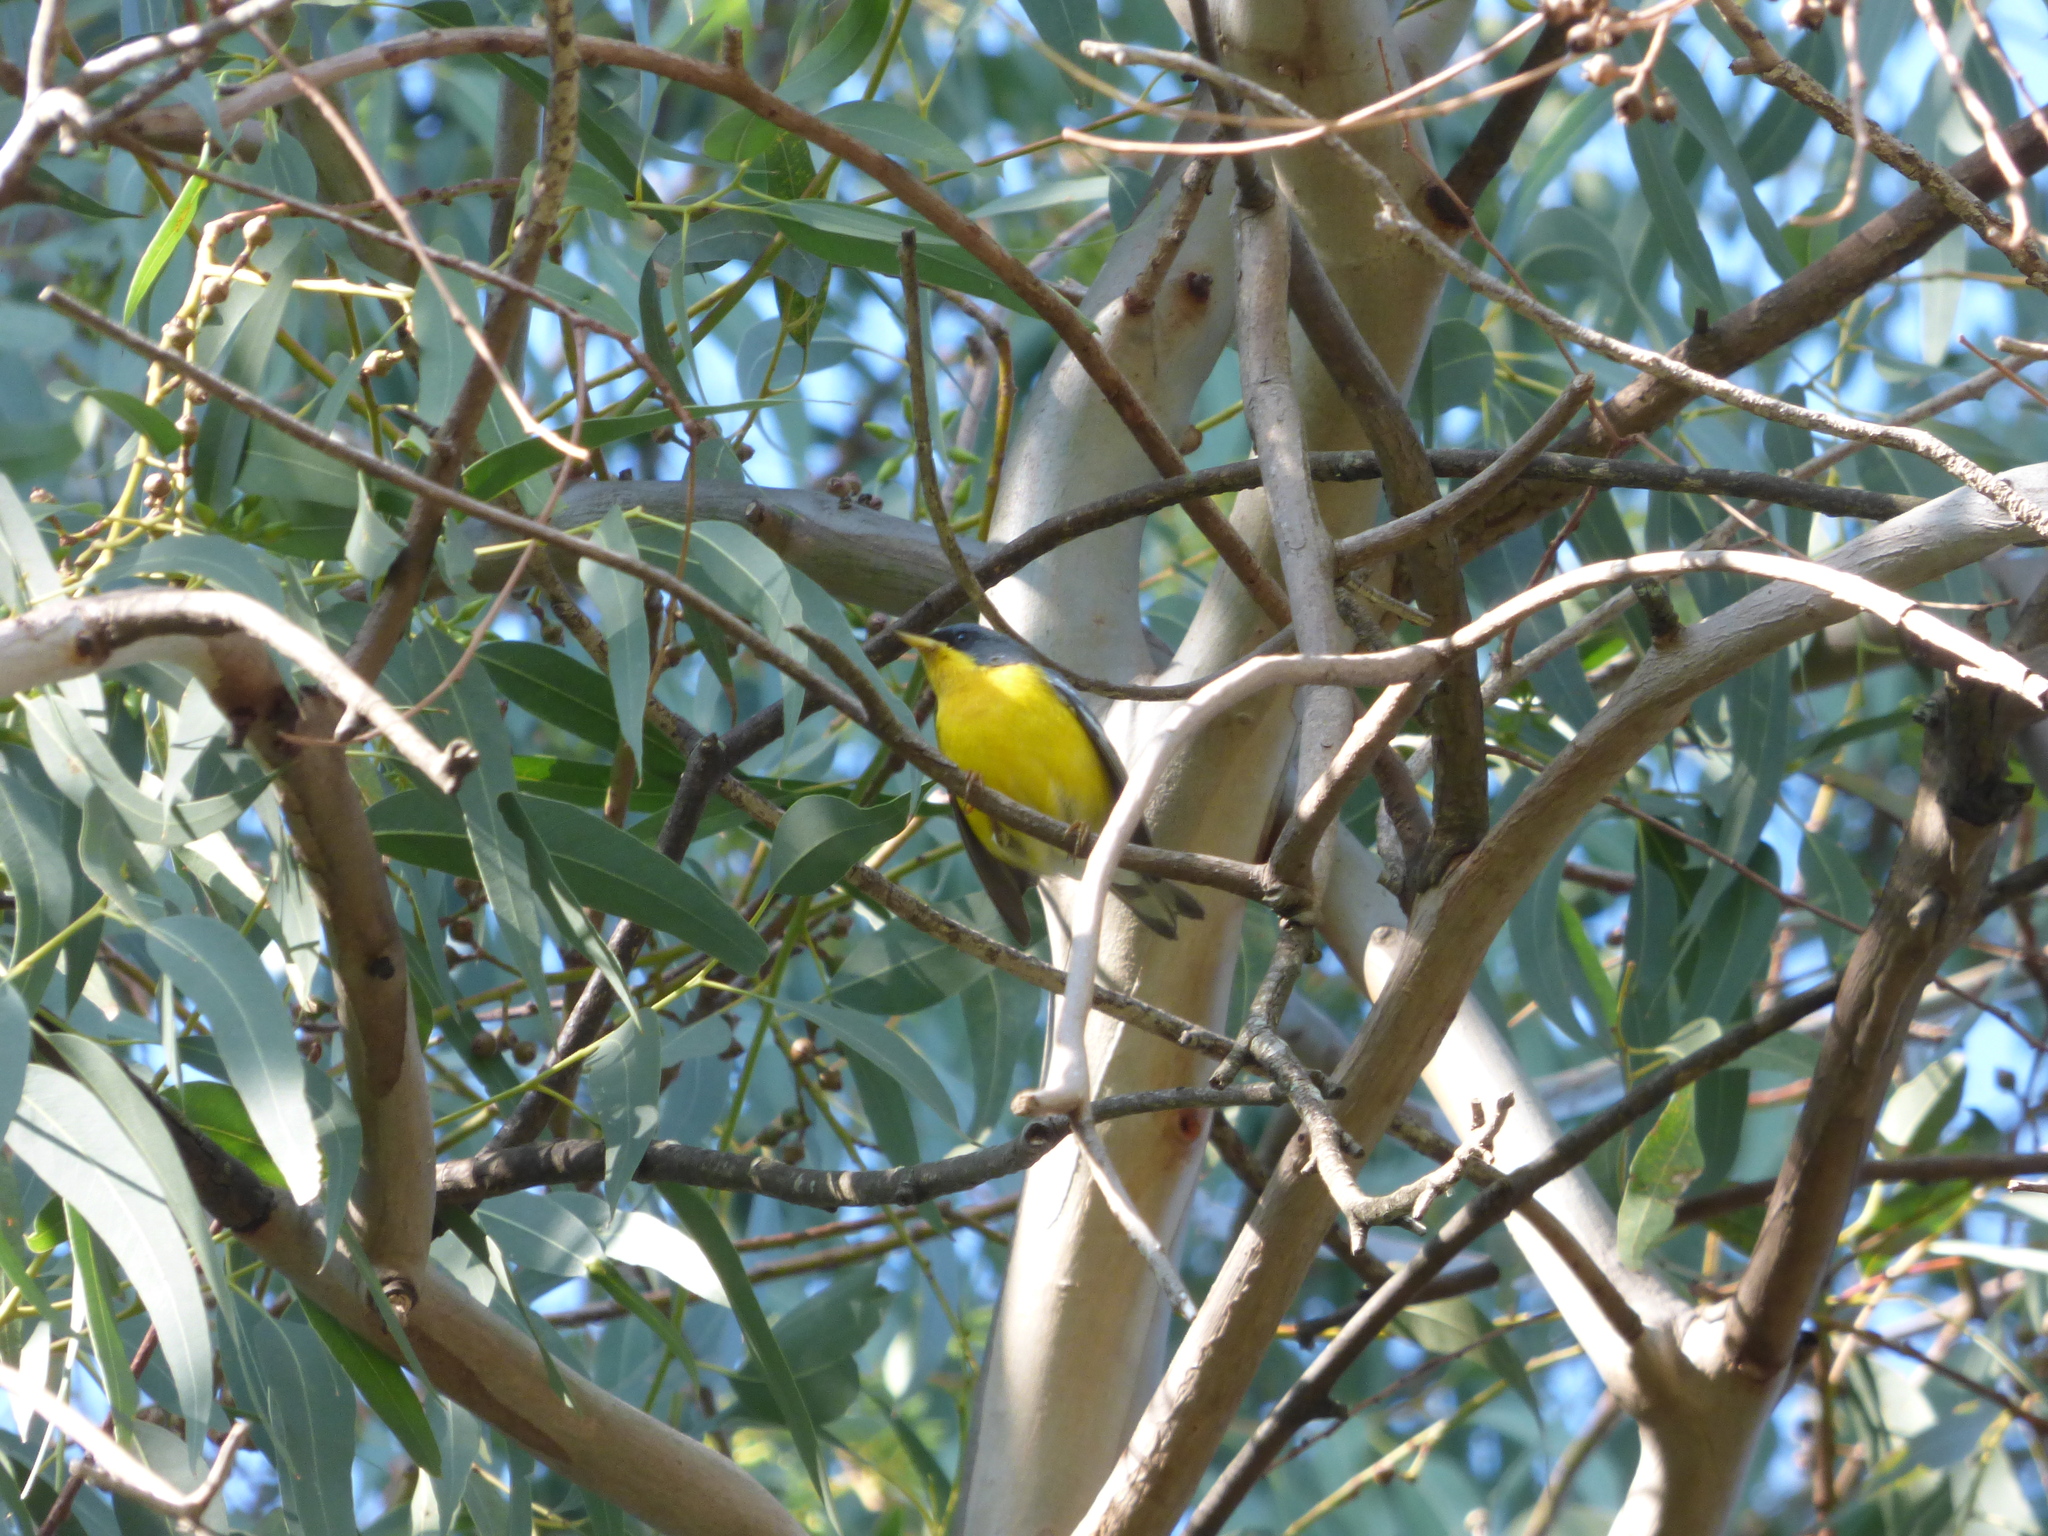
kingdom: Animalia
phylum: Chordata
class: Aves
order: Passeriformes
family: Parulidae
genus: Setophaga
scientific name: Setophaga pitiayumi
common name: Tropical parula
